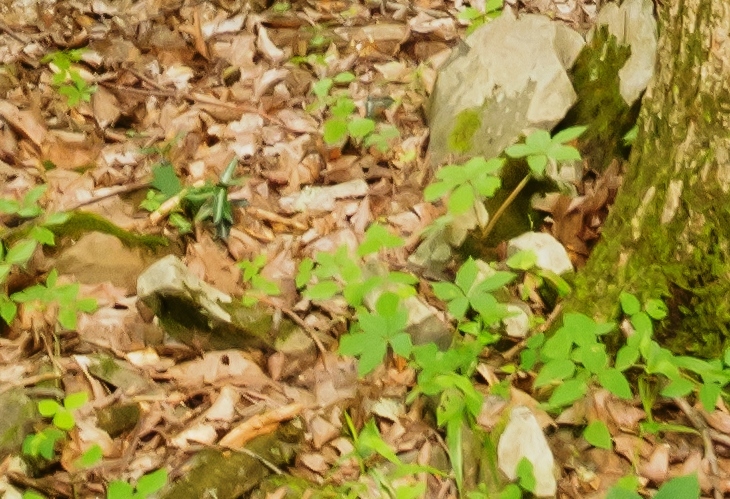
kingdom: Plantae
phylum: Tracheophyta
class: Magnoliopsida
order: Ericales
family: Ericaceae
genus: Chimaphila
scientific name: Chimaphila maculata
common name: Spotted pipsissewa
